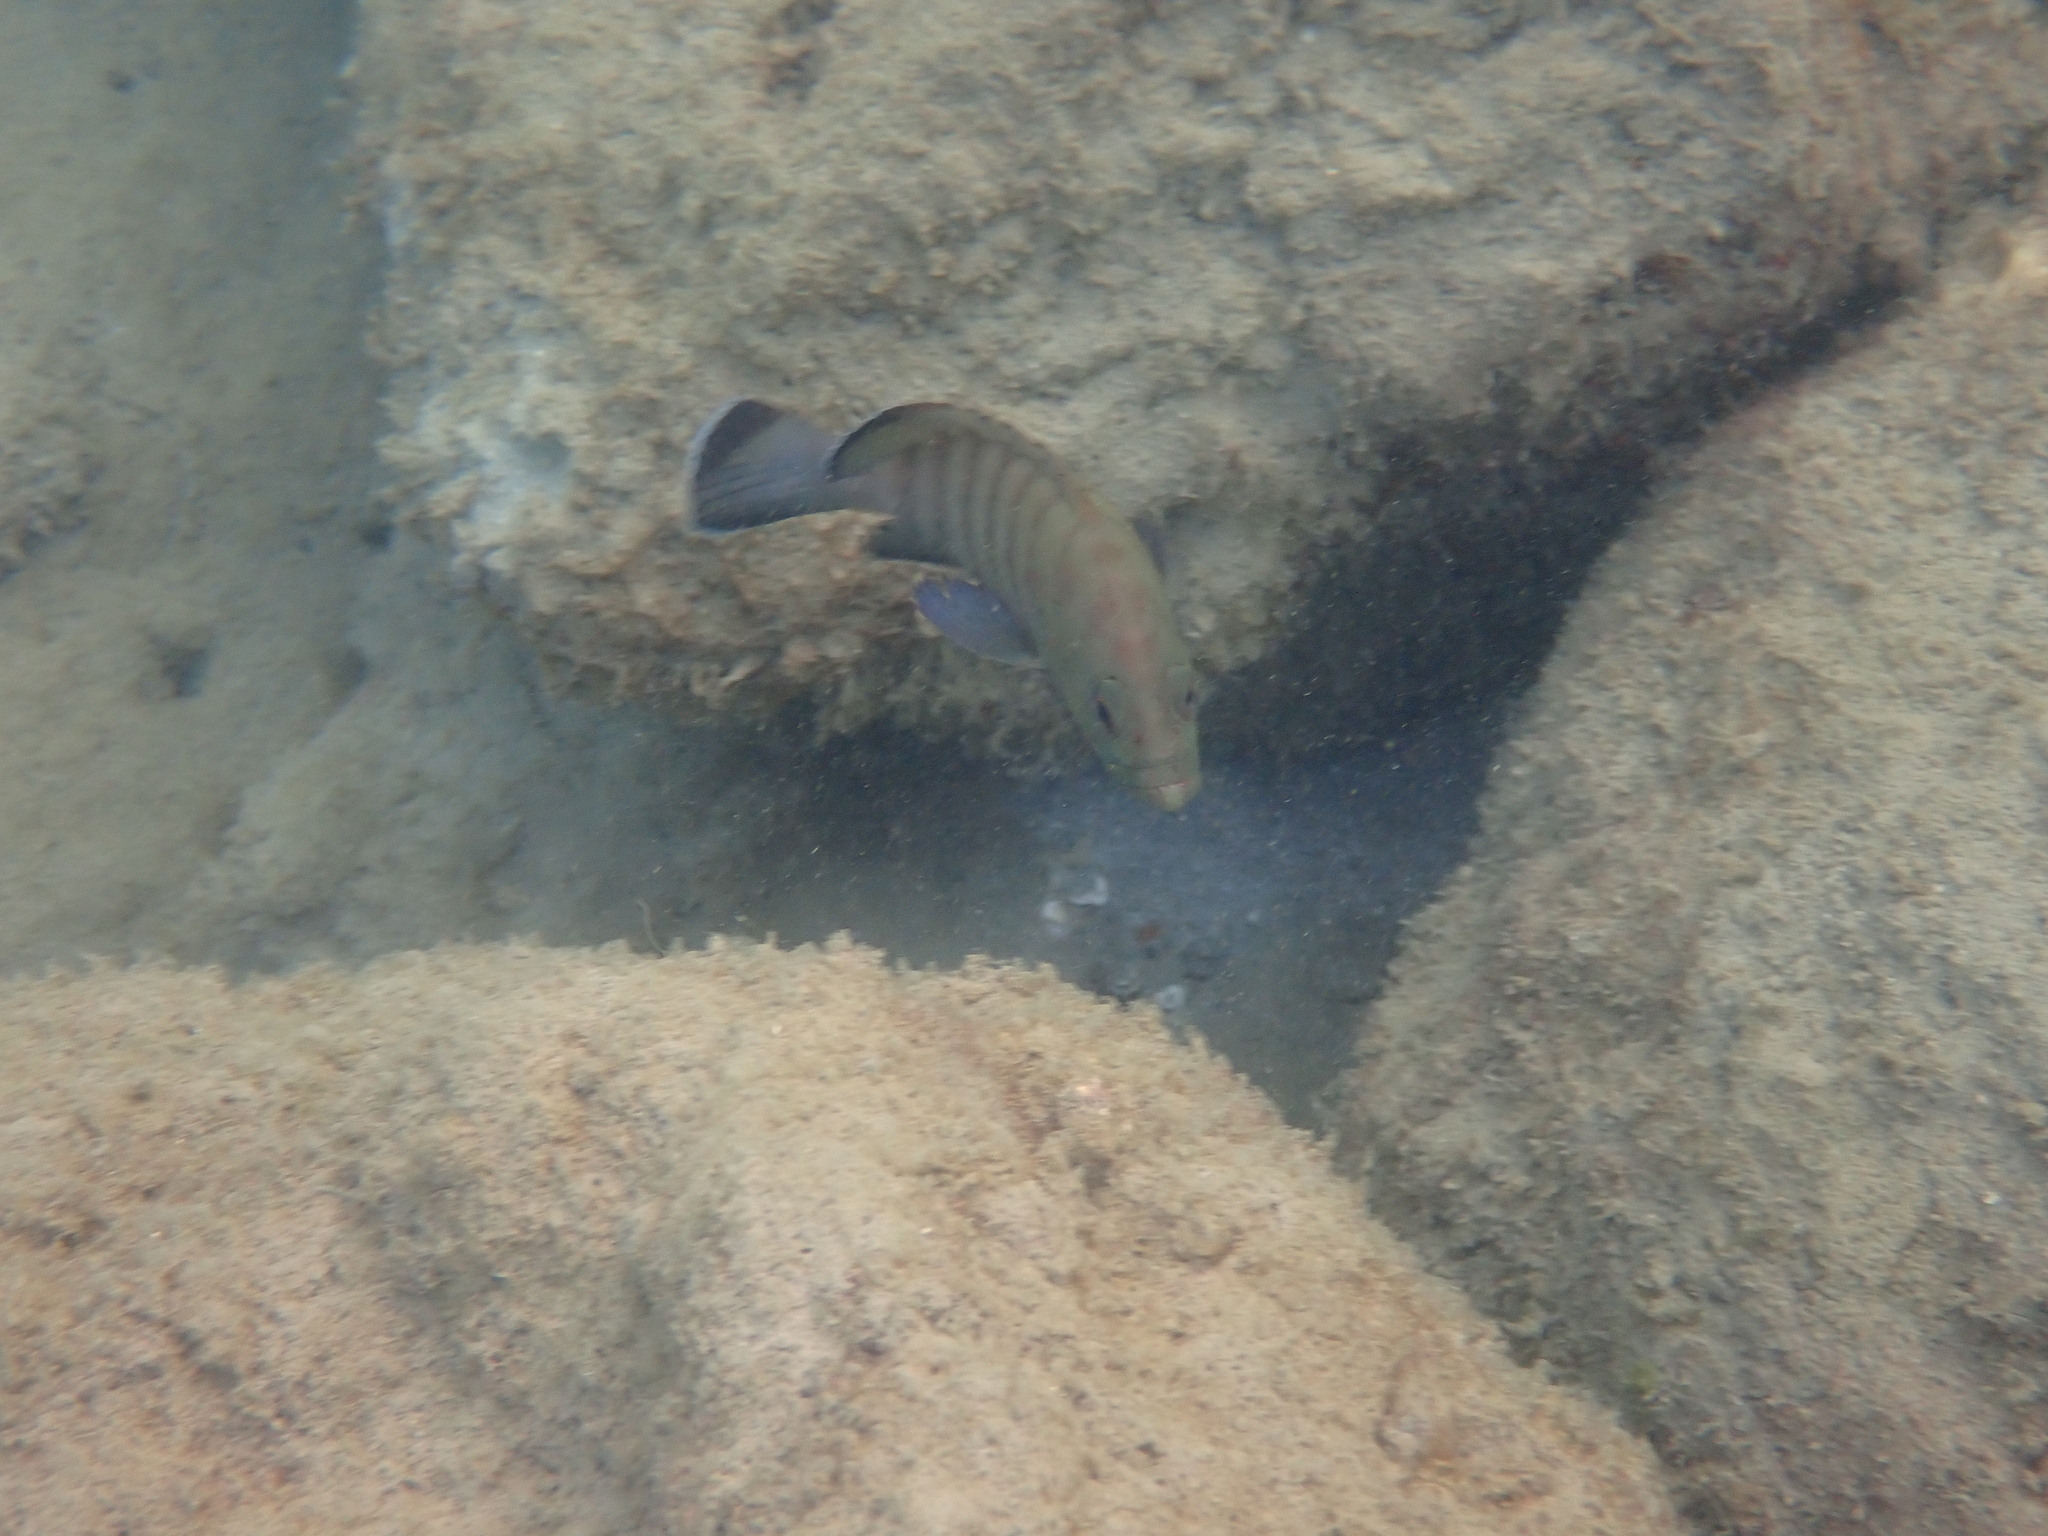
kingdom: Animalia
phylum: Chordata
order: Perciformes
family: Serranidae
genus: Cephalopholis
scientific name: Cephalopholis boenak
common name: Chocolate hind
